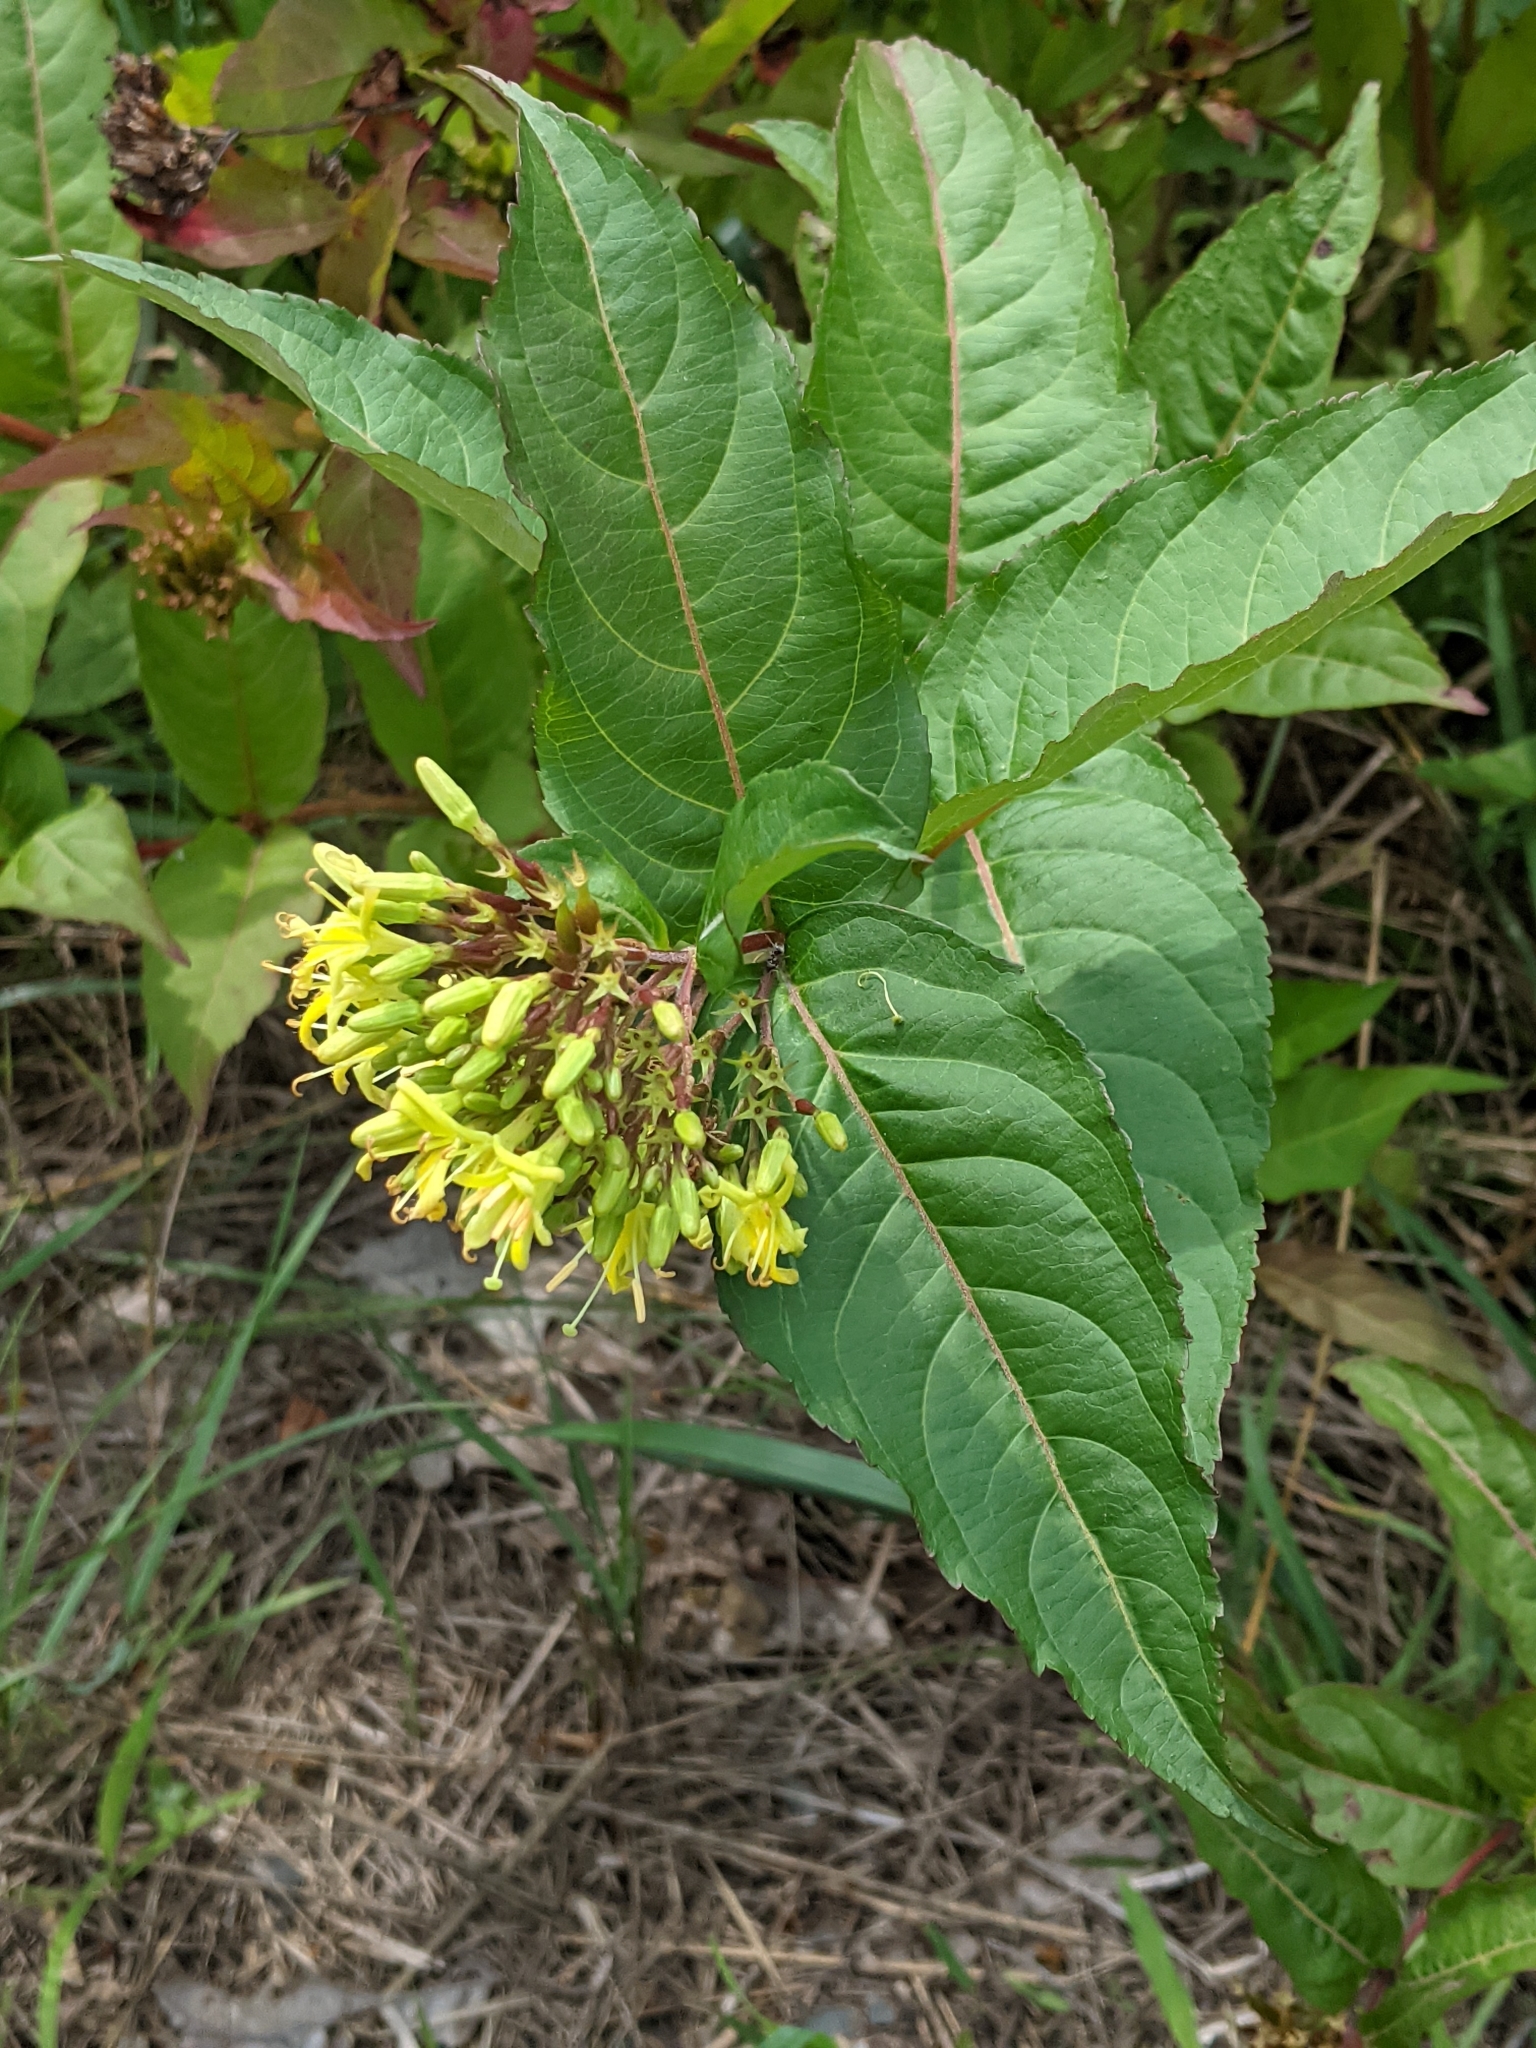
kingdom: Plantae
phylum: Tracheophyta
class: Magnoliopsida
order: Dipsacales
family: Caprifoliaceae
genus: Diervilla
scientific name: Diervilla lonicera
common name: Bush-honeysuckle
